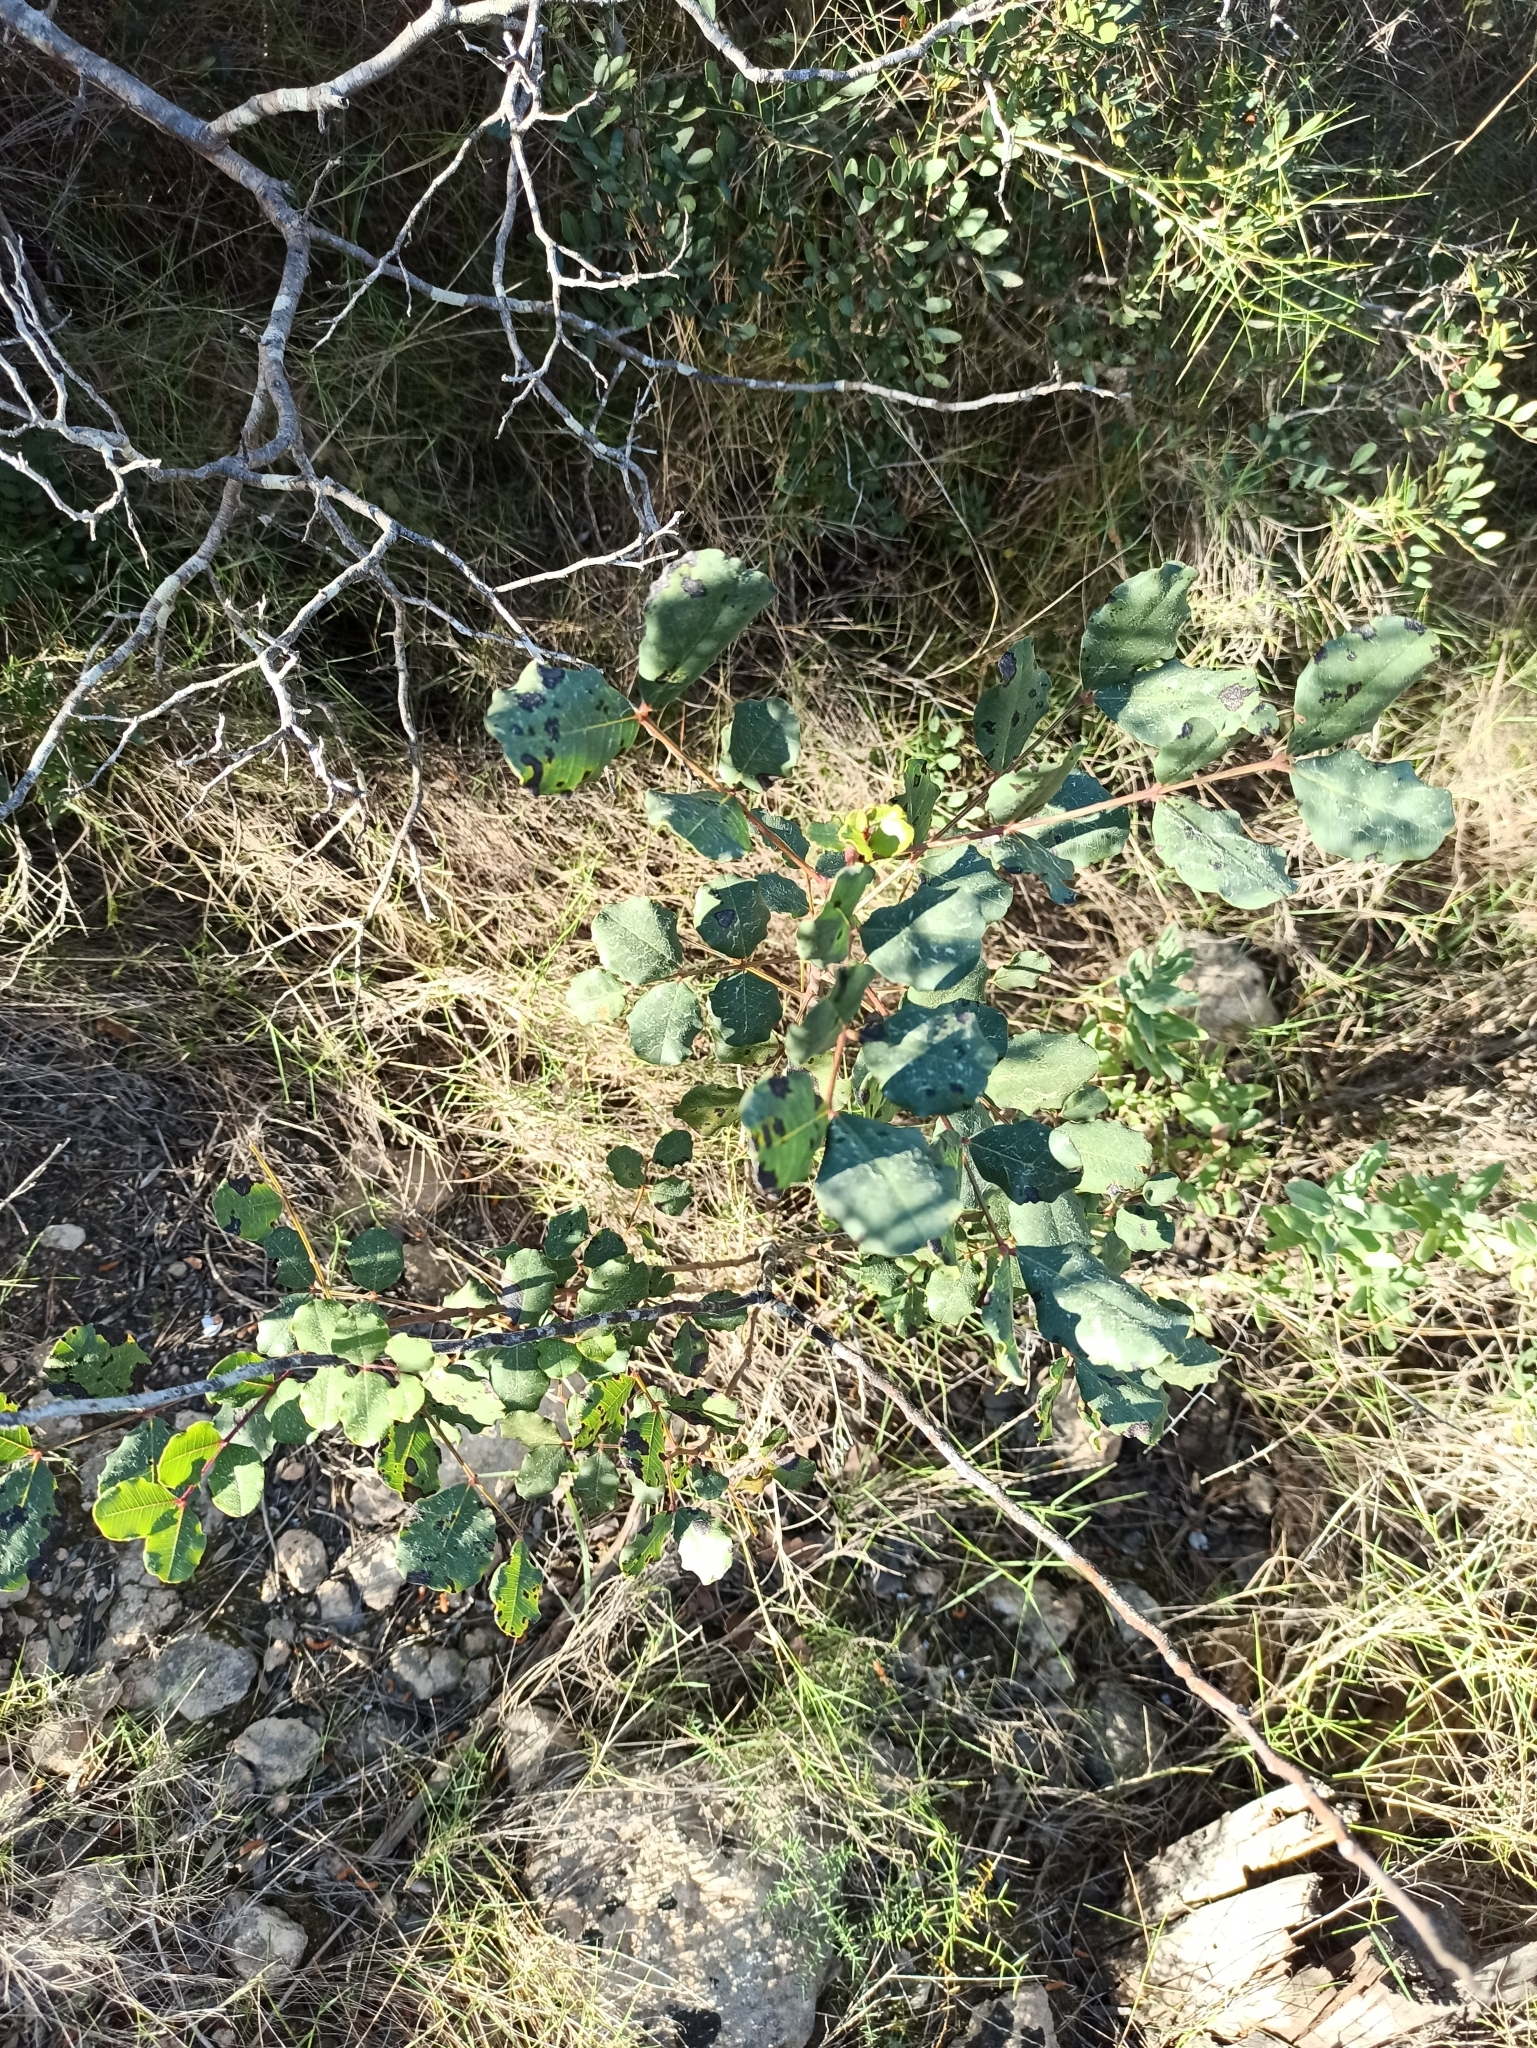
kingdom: Plantae
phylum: Tracheophyta
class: Magnoliopsida
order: Fabales
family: Fabaceae
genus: Ceratonia
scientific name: Ceratonia siliqua
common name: Carob
